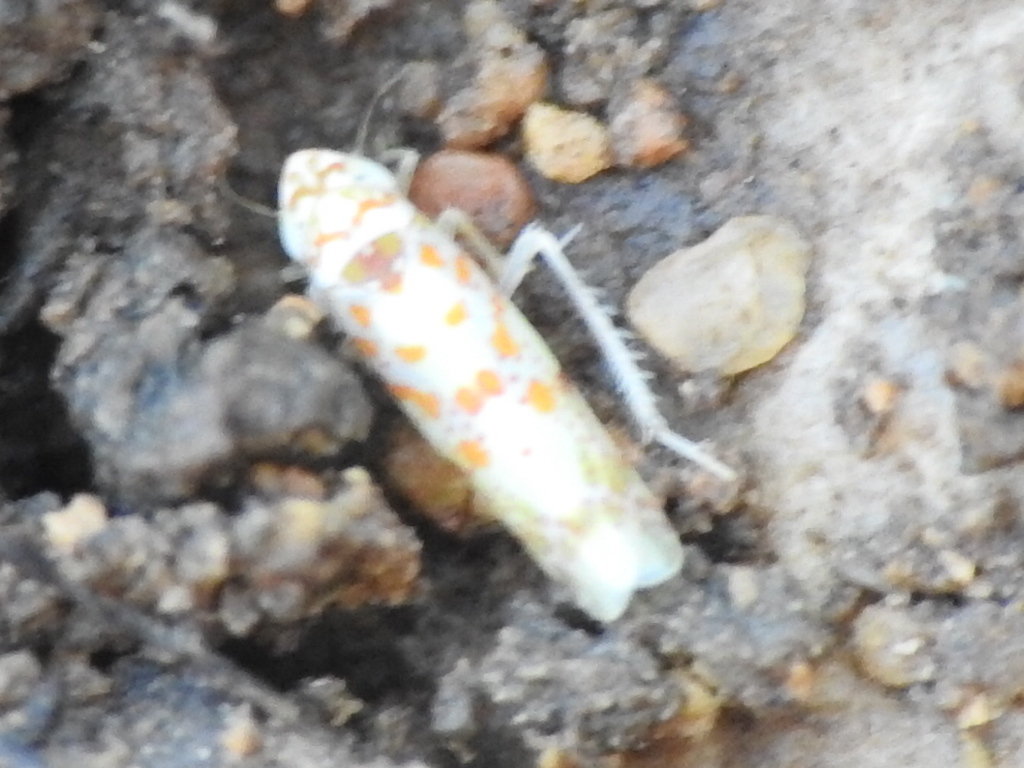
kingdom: Animalia
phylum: Arthropoda
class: Insecta
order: Hemiptera
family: Cicadellidae
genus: Dikrella
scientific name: Dikrella maculata
